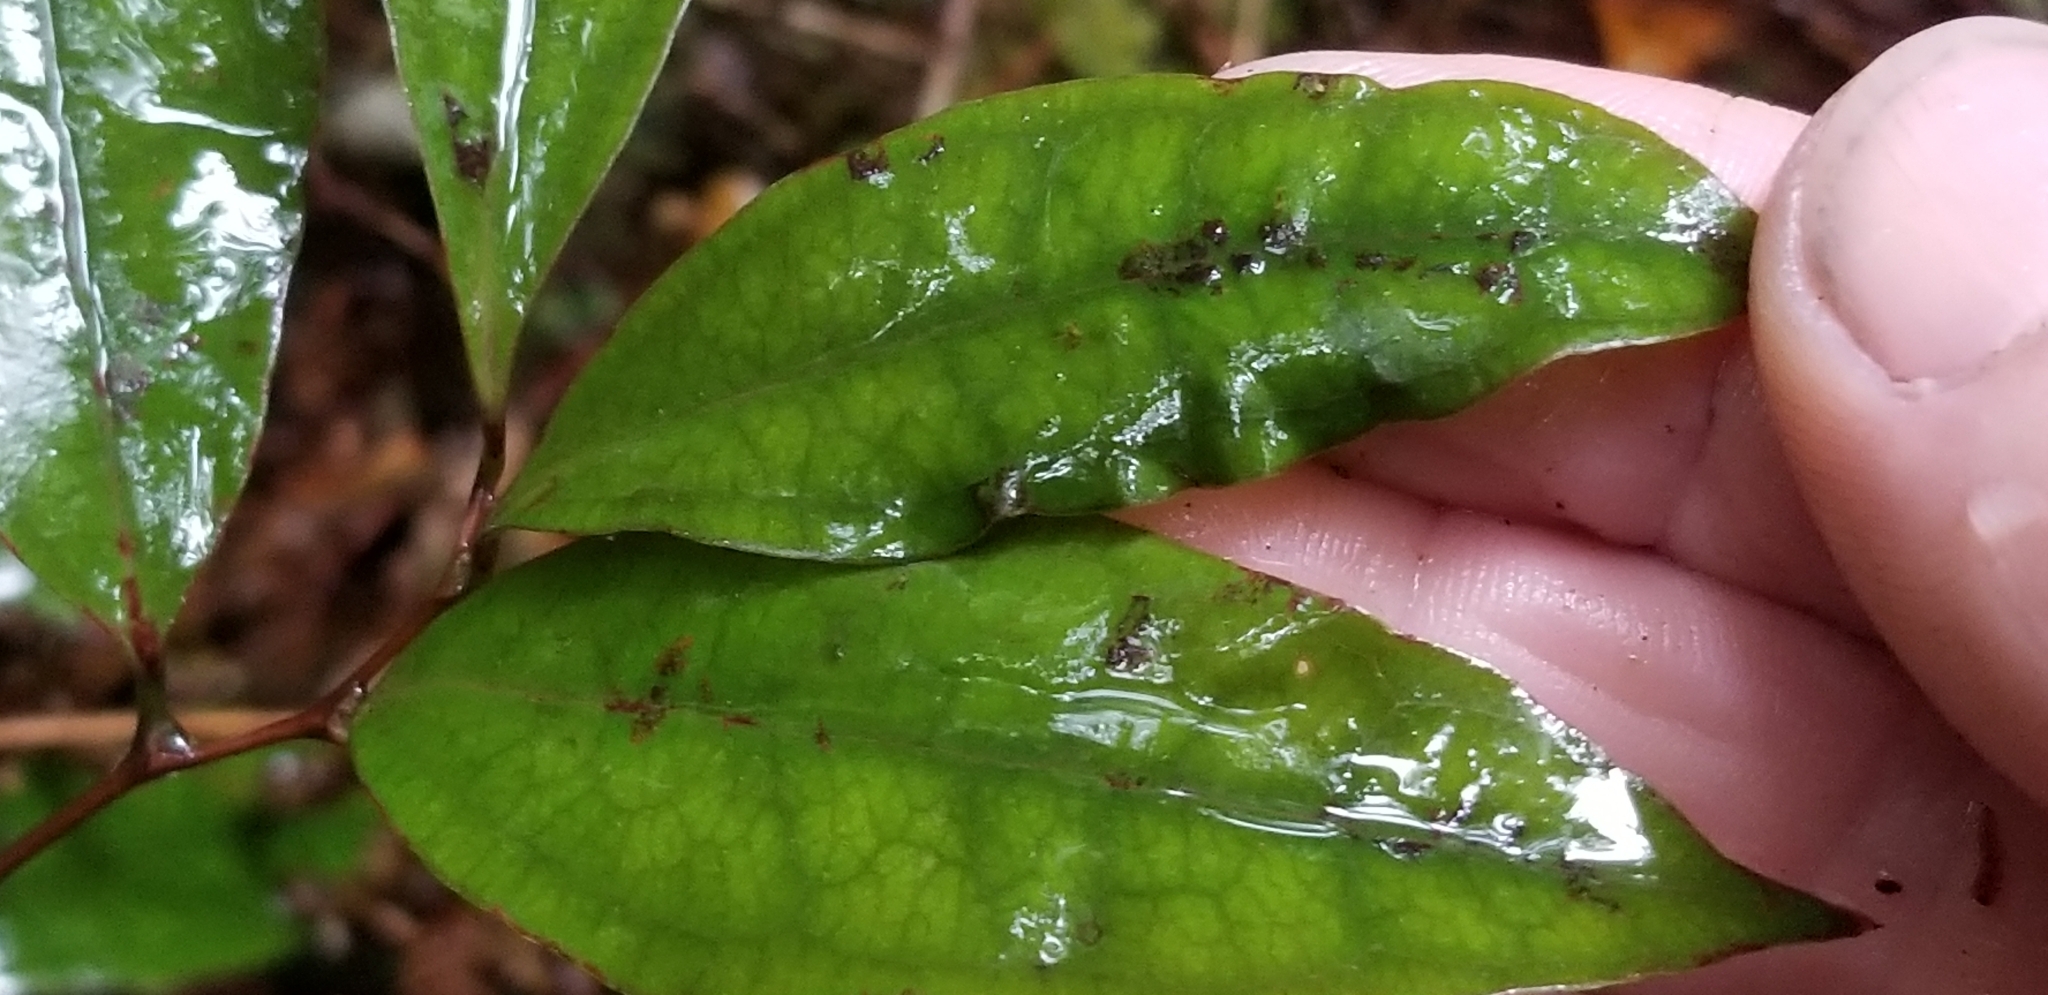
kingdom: Plantae
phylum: Tracheophyta
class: Liliopsida
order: Liliales
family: Ripogonaceae
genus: Ripogonum
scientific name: Ripogonum scandens
